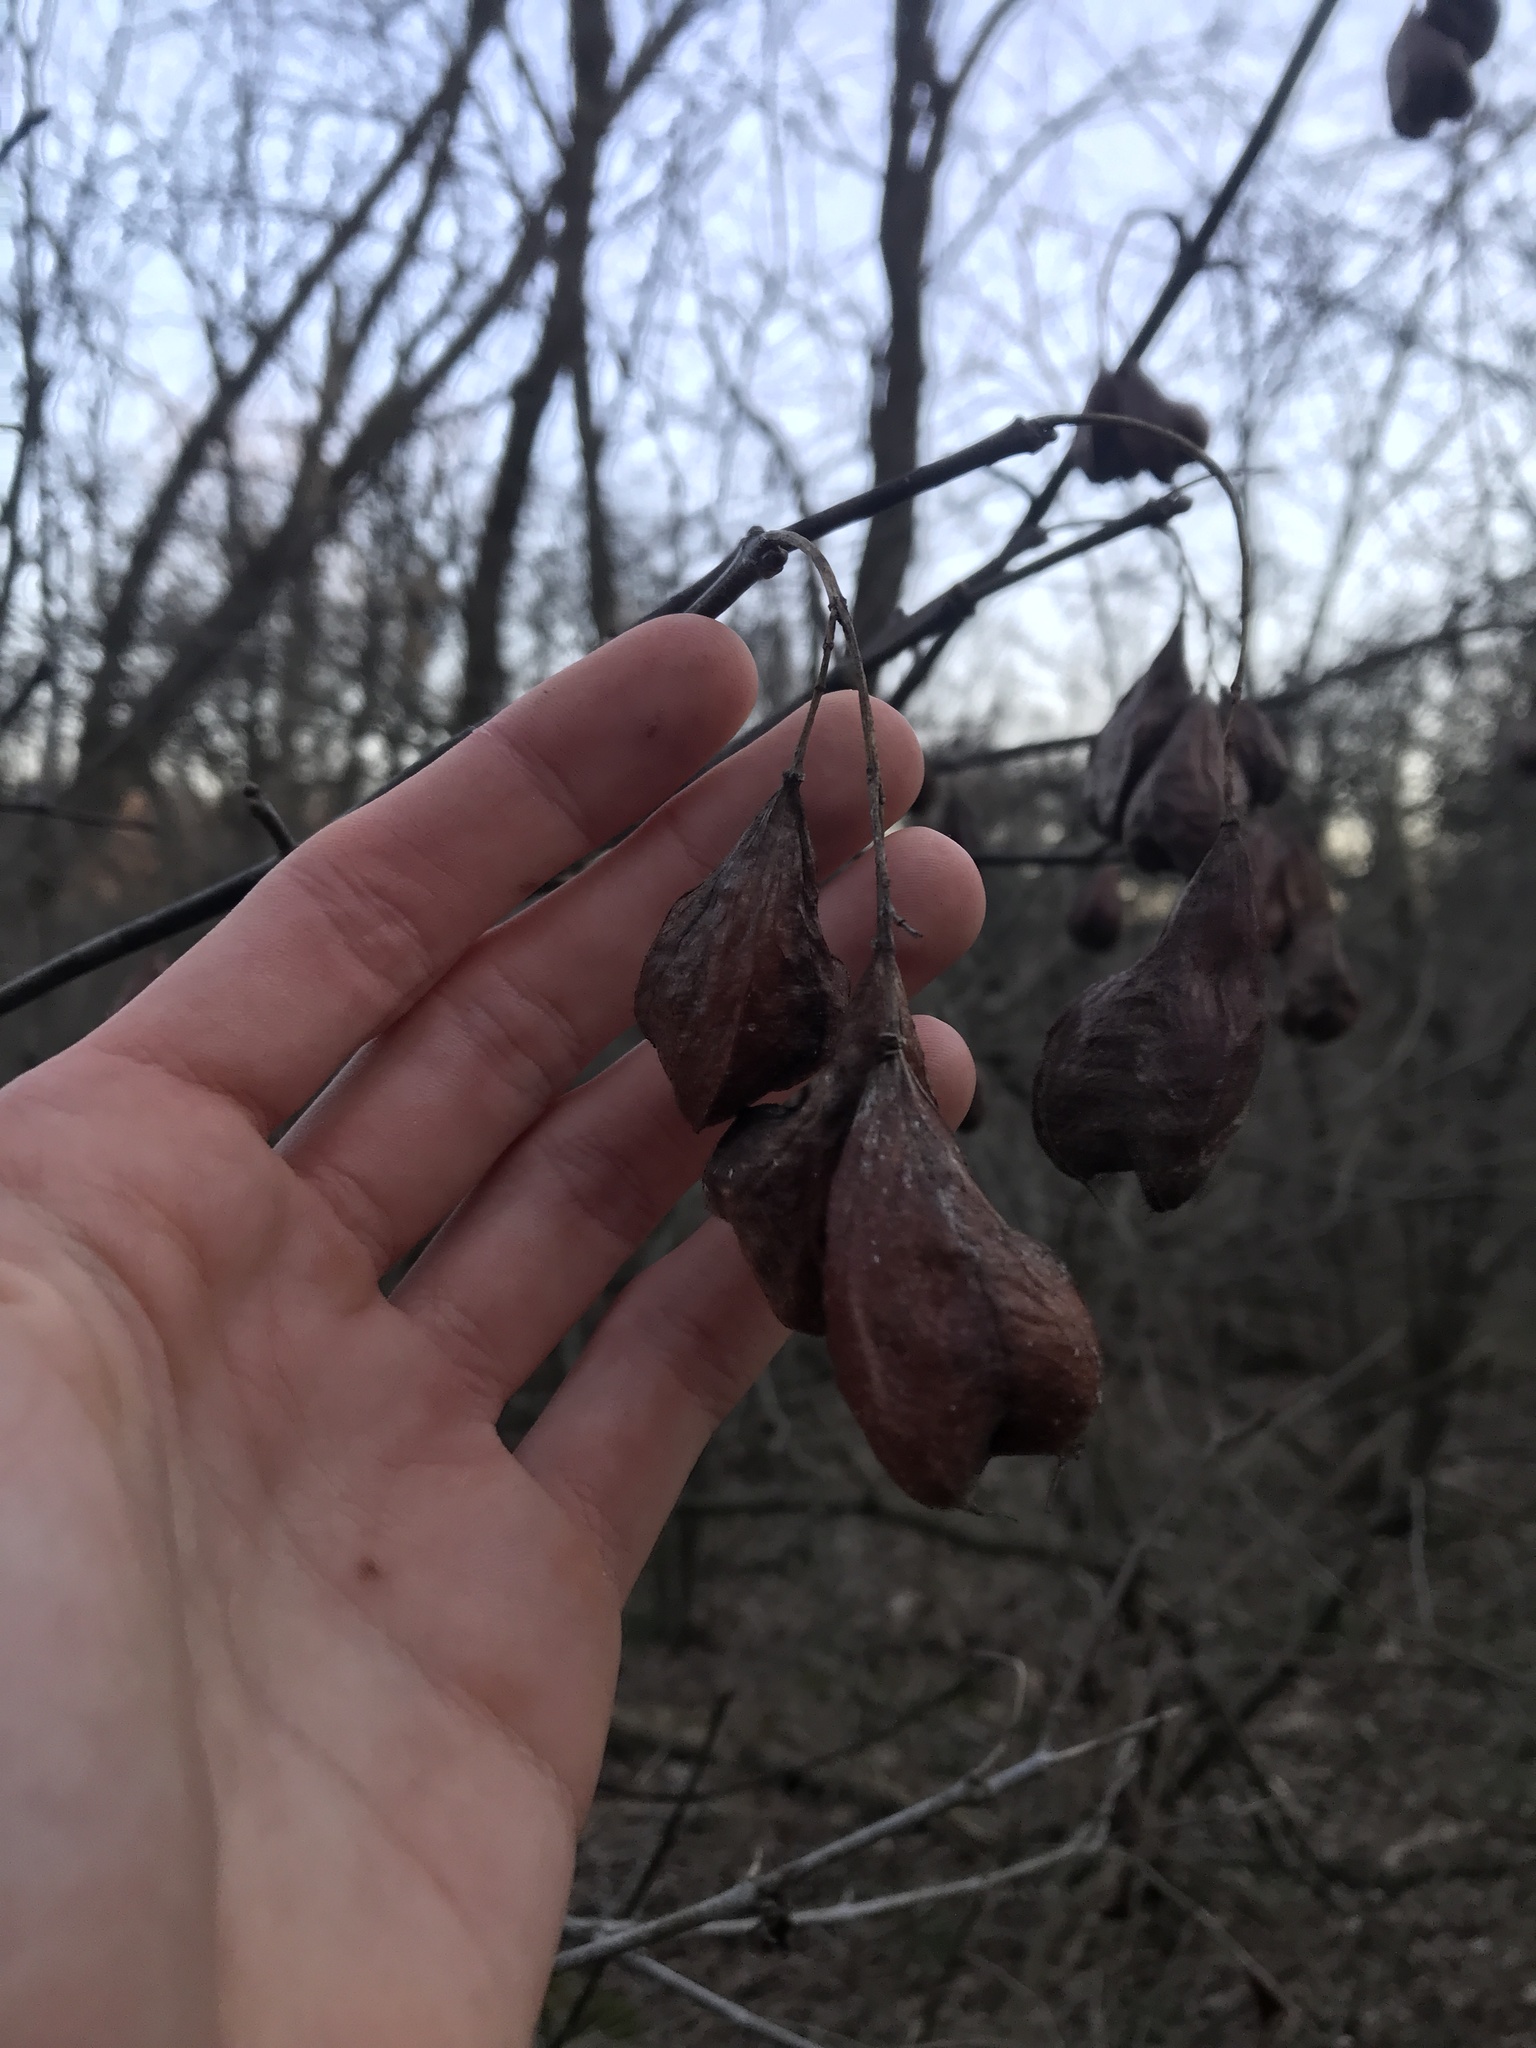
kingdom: Plantae
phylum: Tracheophyta
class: Magnoliopsida
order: Crossosomatales
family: Staphyleaceae
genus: Staphylea
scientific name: Staphylea trifolia
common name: American bladdernut
